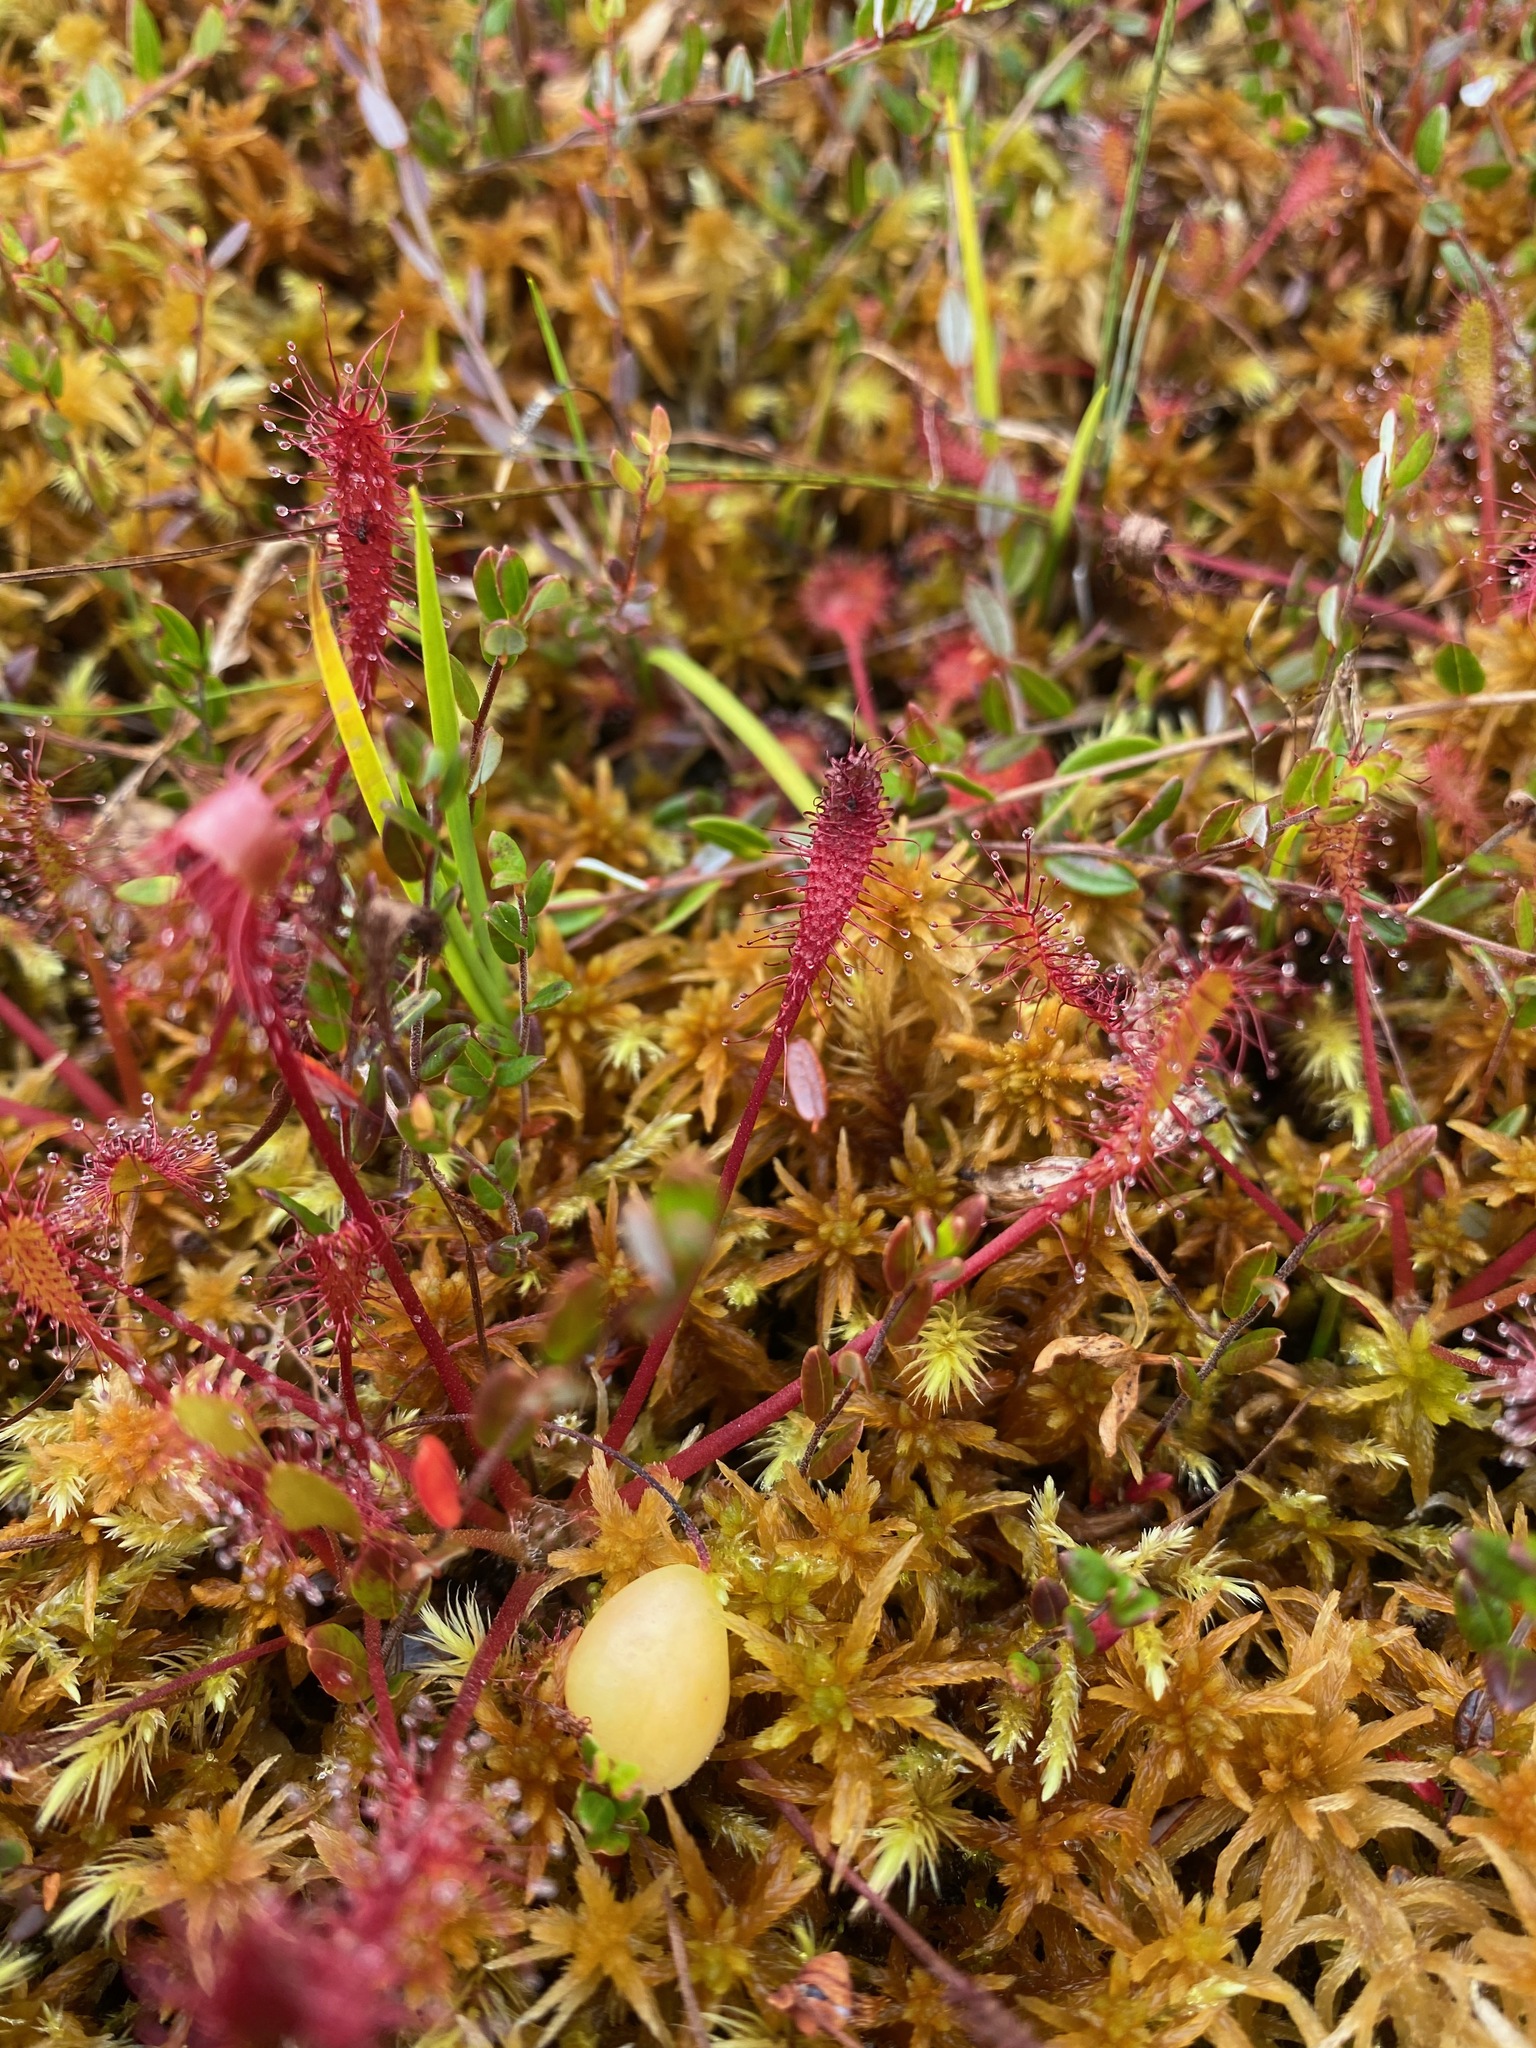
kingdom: Plantae
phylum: Tracheophyta
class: Magnoliopsida
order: Caryophyllales
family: Droseraceae
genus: Drosera
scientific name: Drosera anglica
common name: Great sundew
